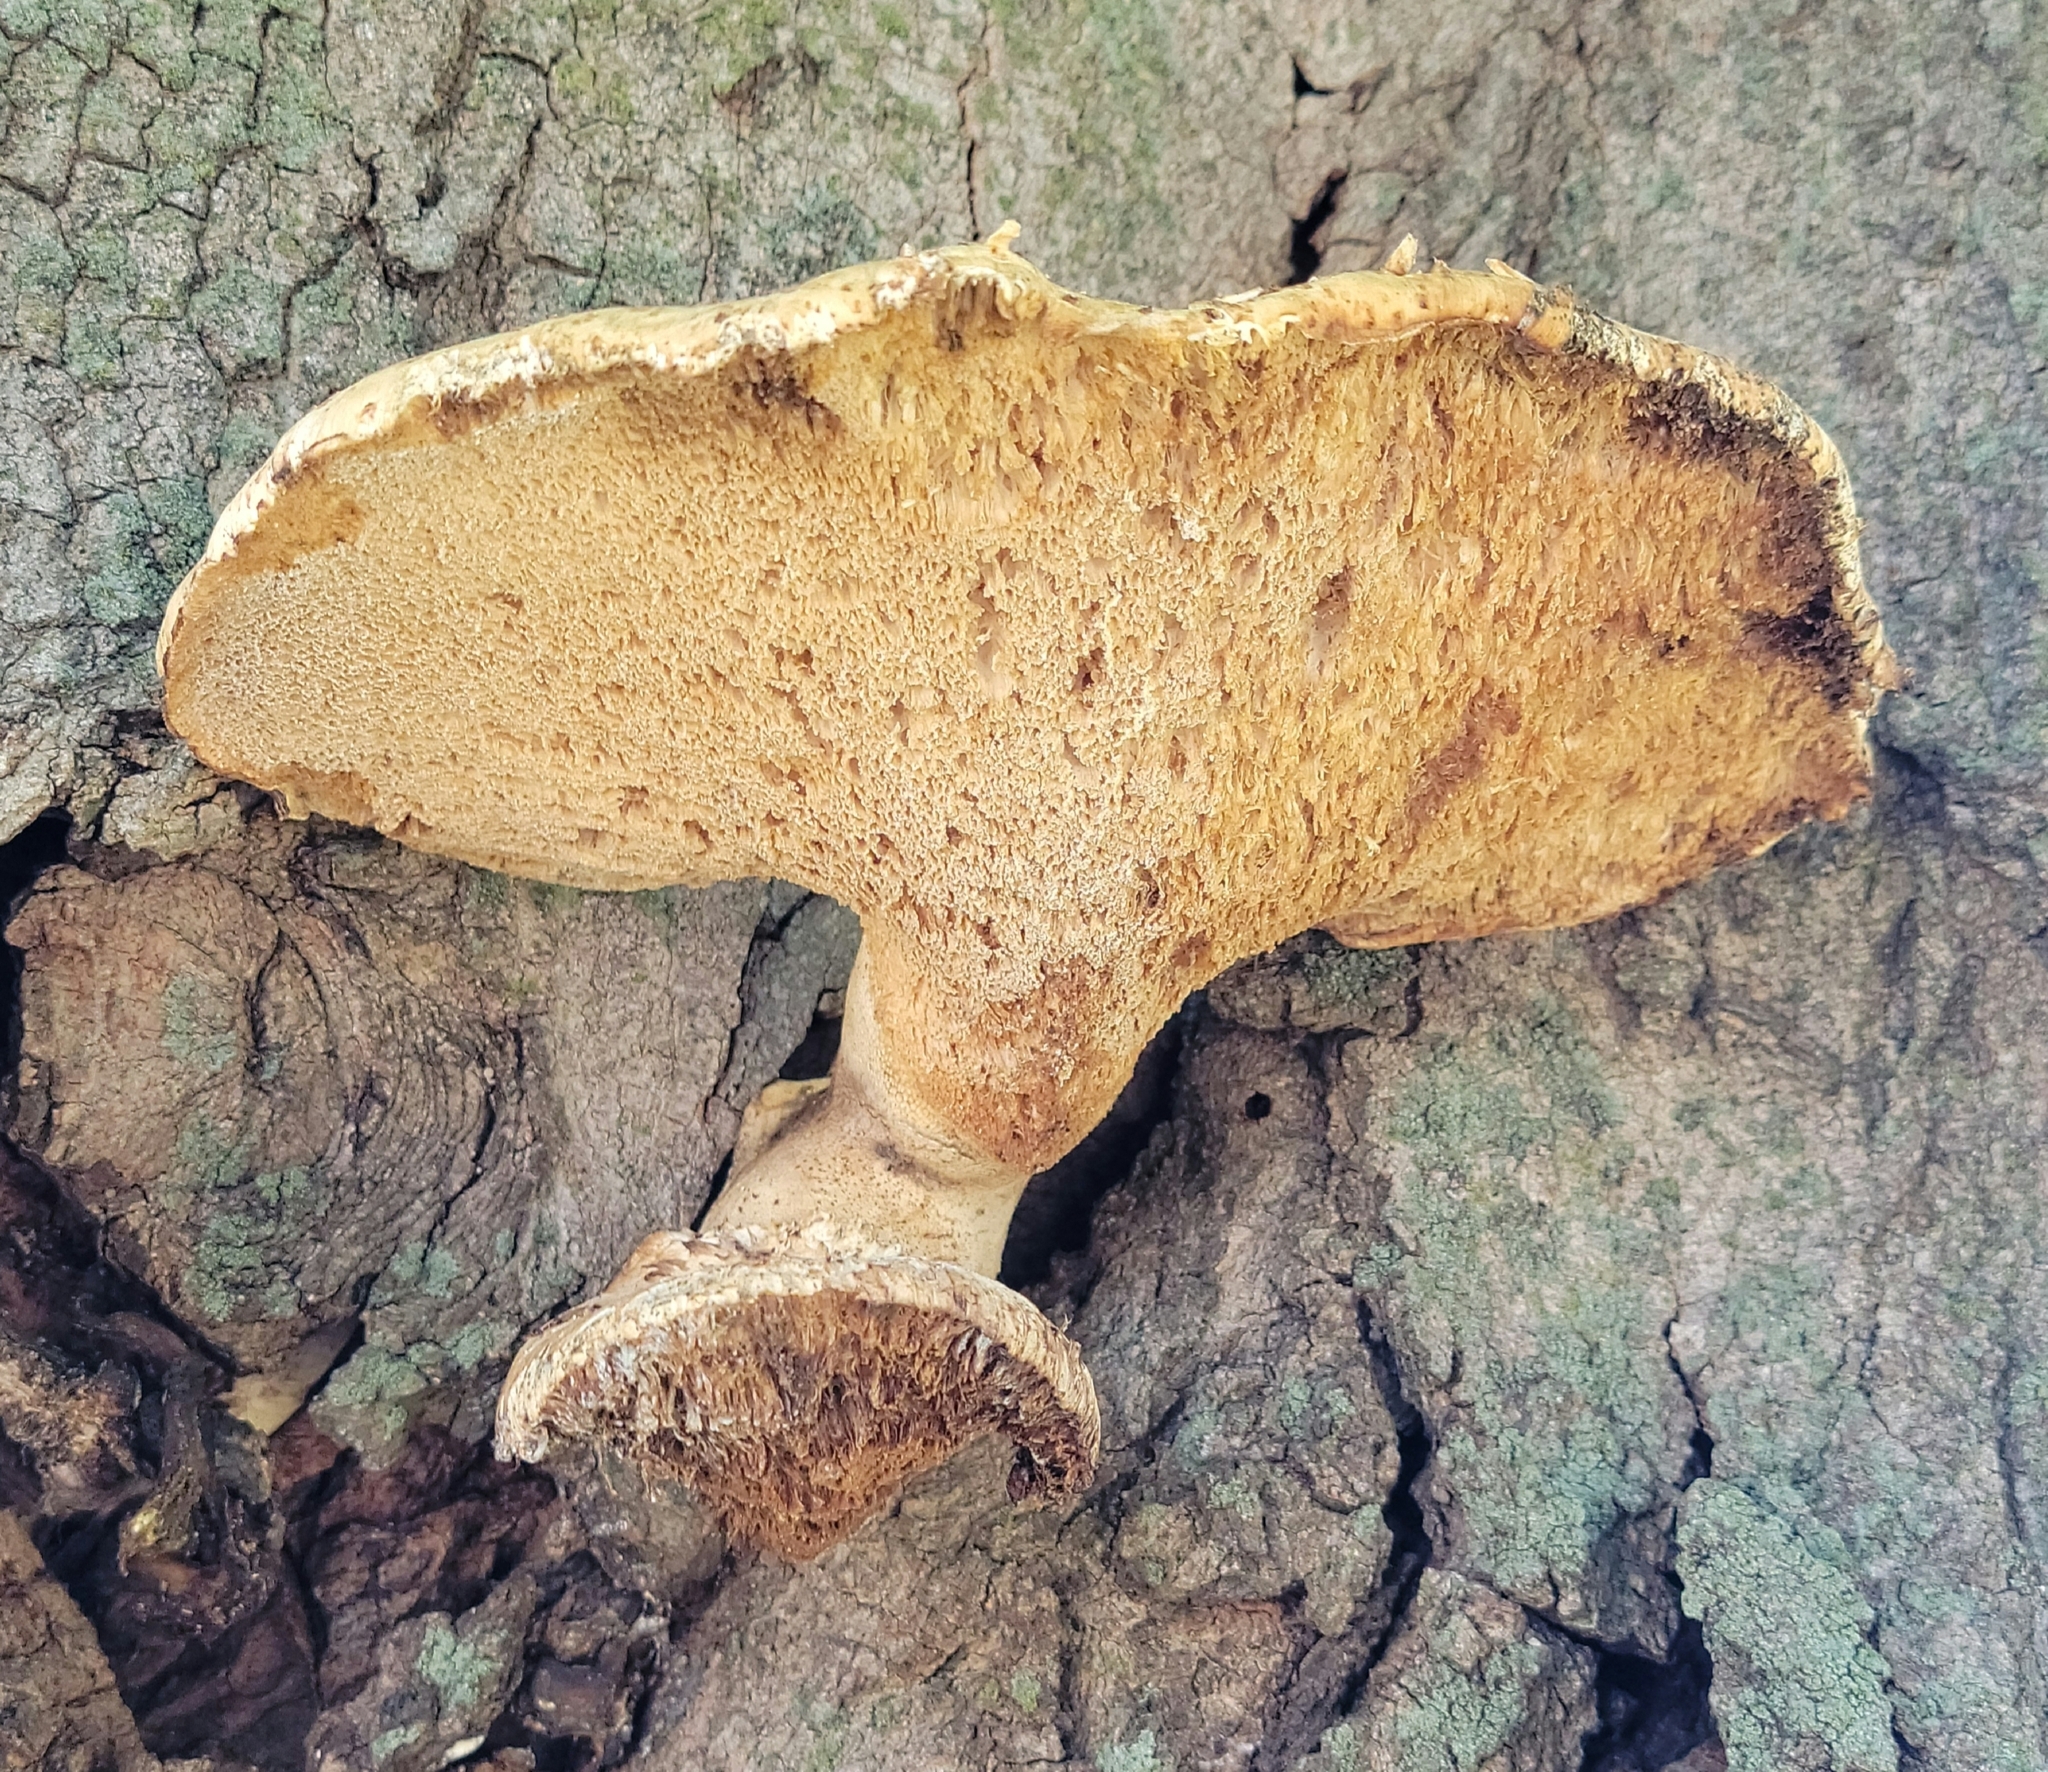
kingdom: Fungi
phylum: Basidiomycota
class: Agaricomycetes
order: Polyporales
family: Polyporaceae
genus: Cerioporus
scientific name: Cerioporus squamosus
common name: Dryad's saddle
